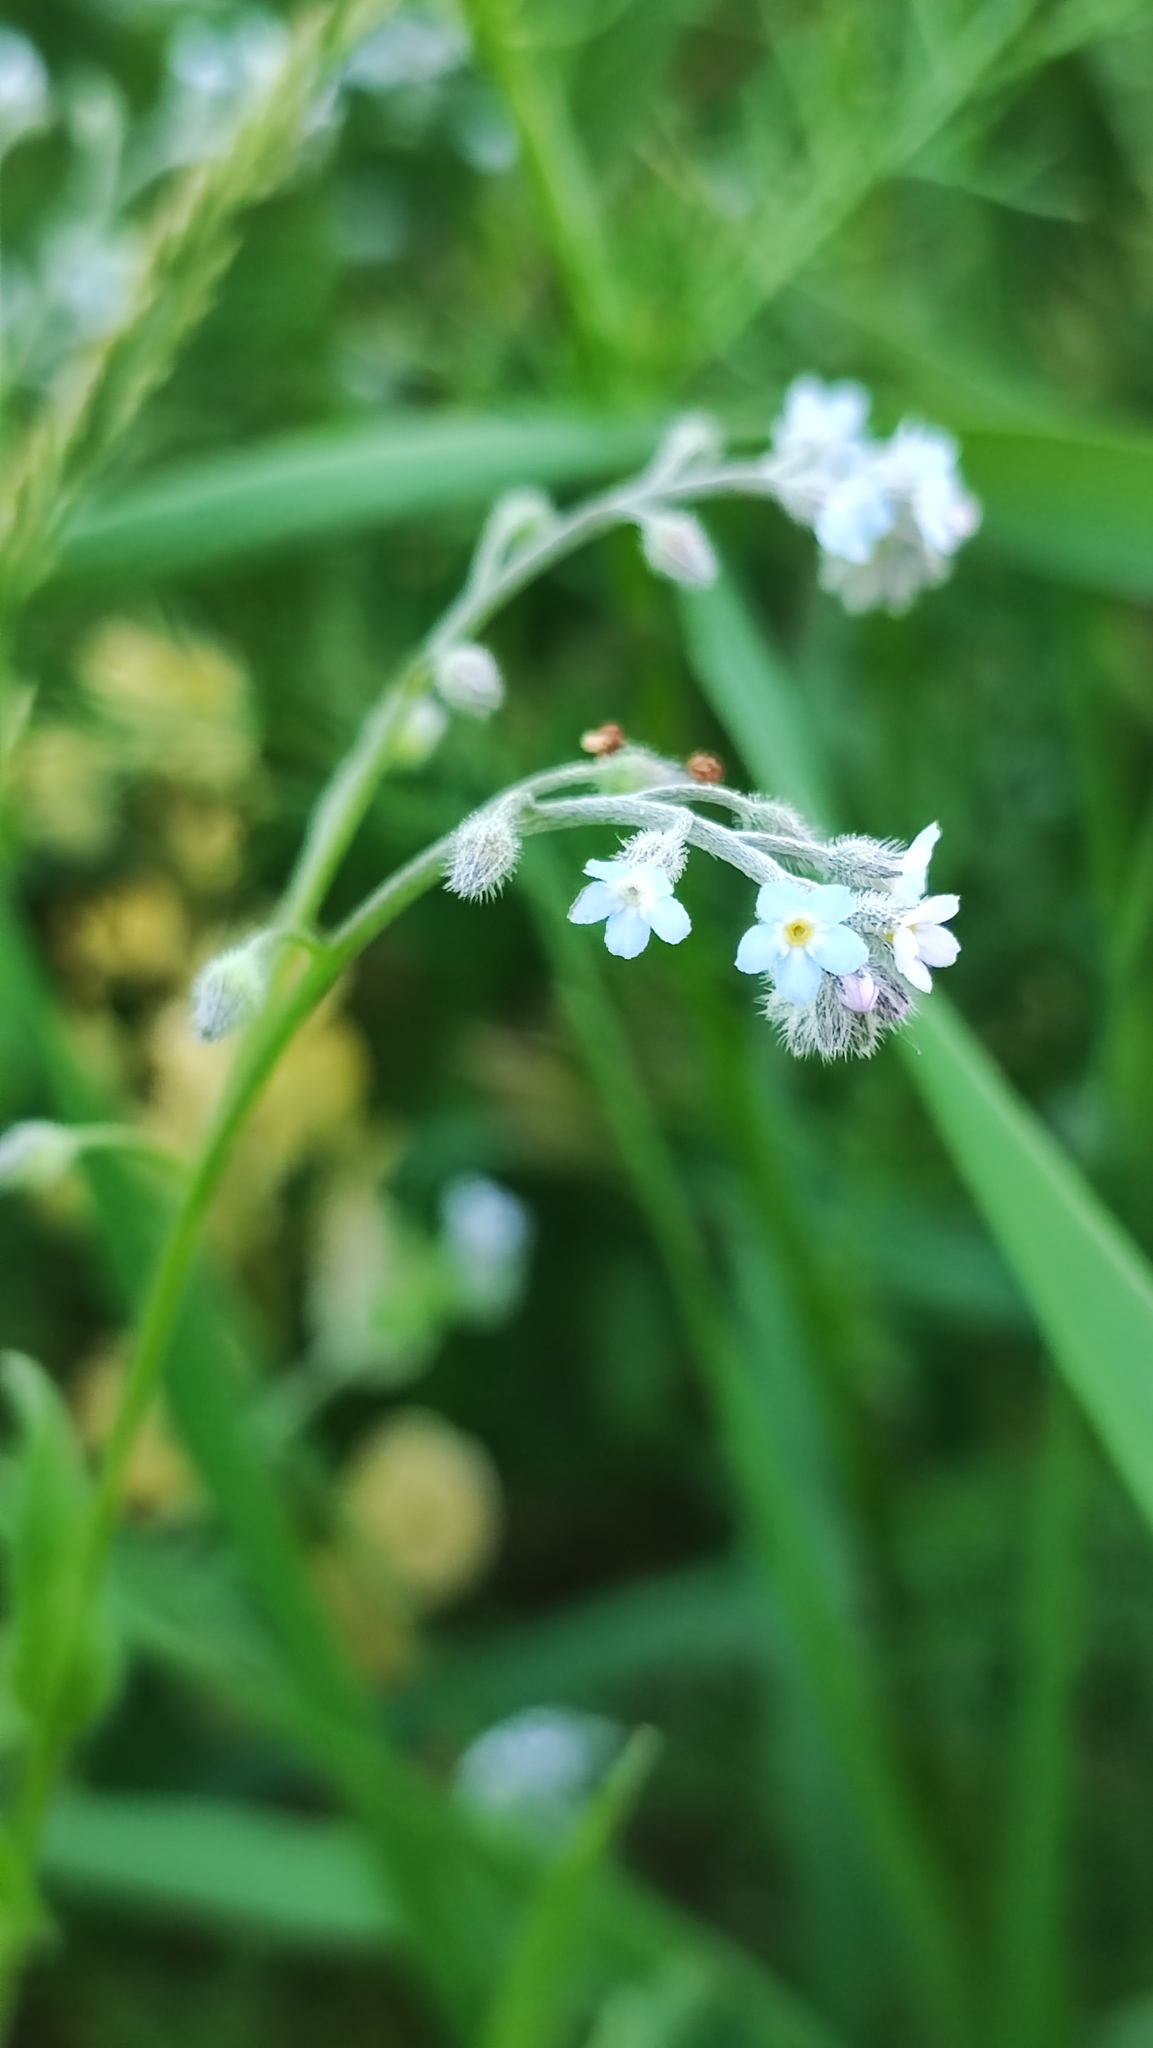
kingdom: Plantae
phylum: Tracheophyta
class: Magnoliopsida
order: Boraginales
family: Boraginaceae
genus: Myosotis
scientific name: Myosotis arvensis
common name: Field forget-me-not
